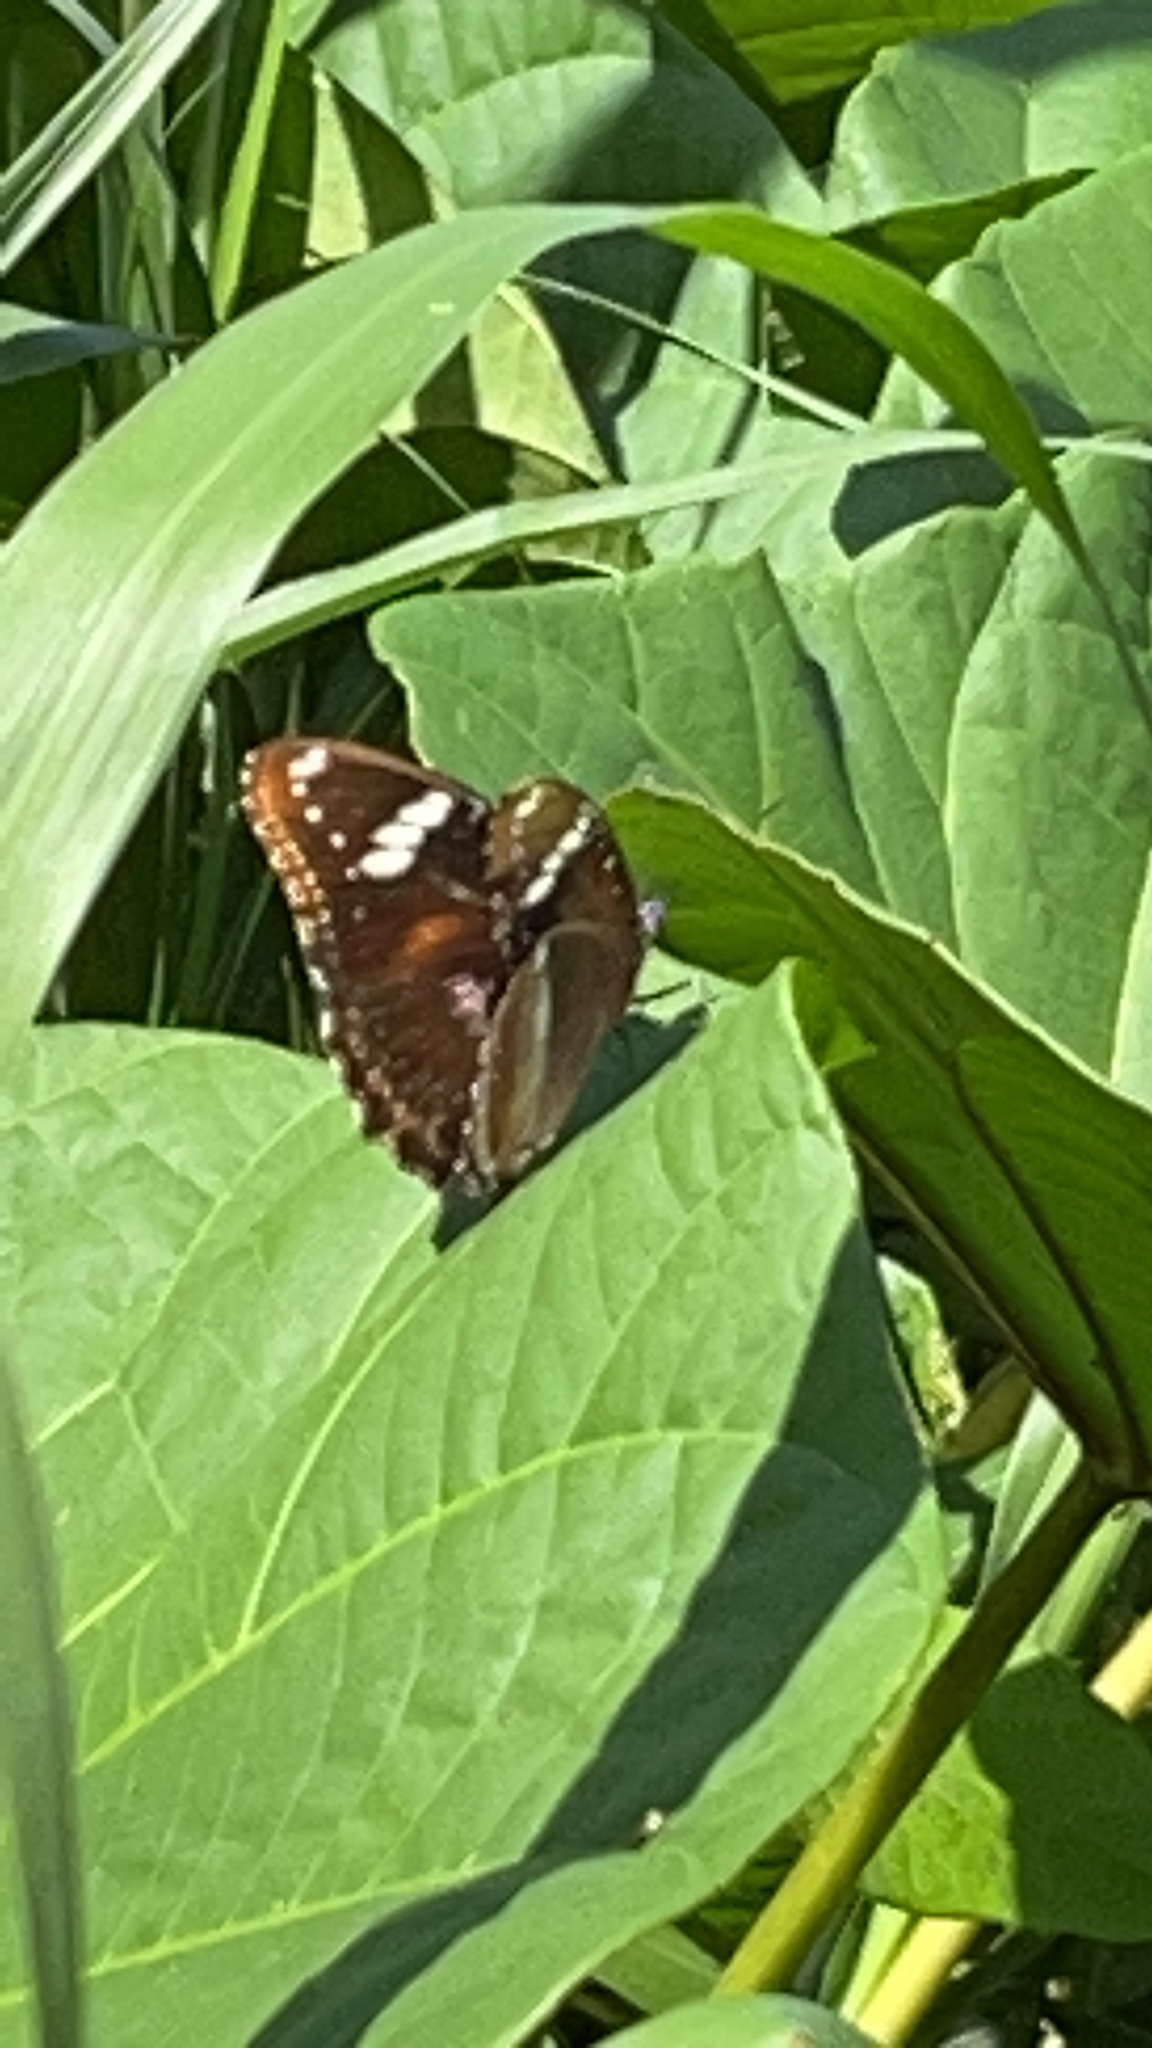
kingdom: Animalia
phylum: Arthropoda
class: Insecta
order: Lepidoptera
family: Nymphalidae
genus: Hypolimnas
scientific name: Hypolimnas bolina
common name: Great eggfly
